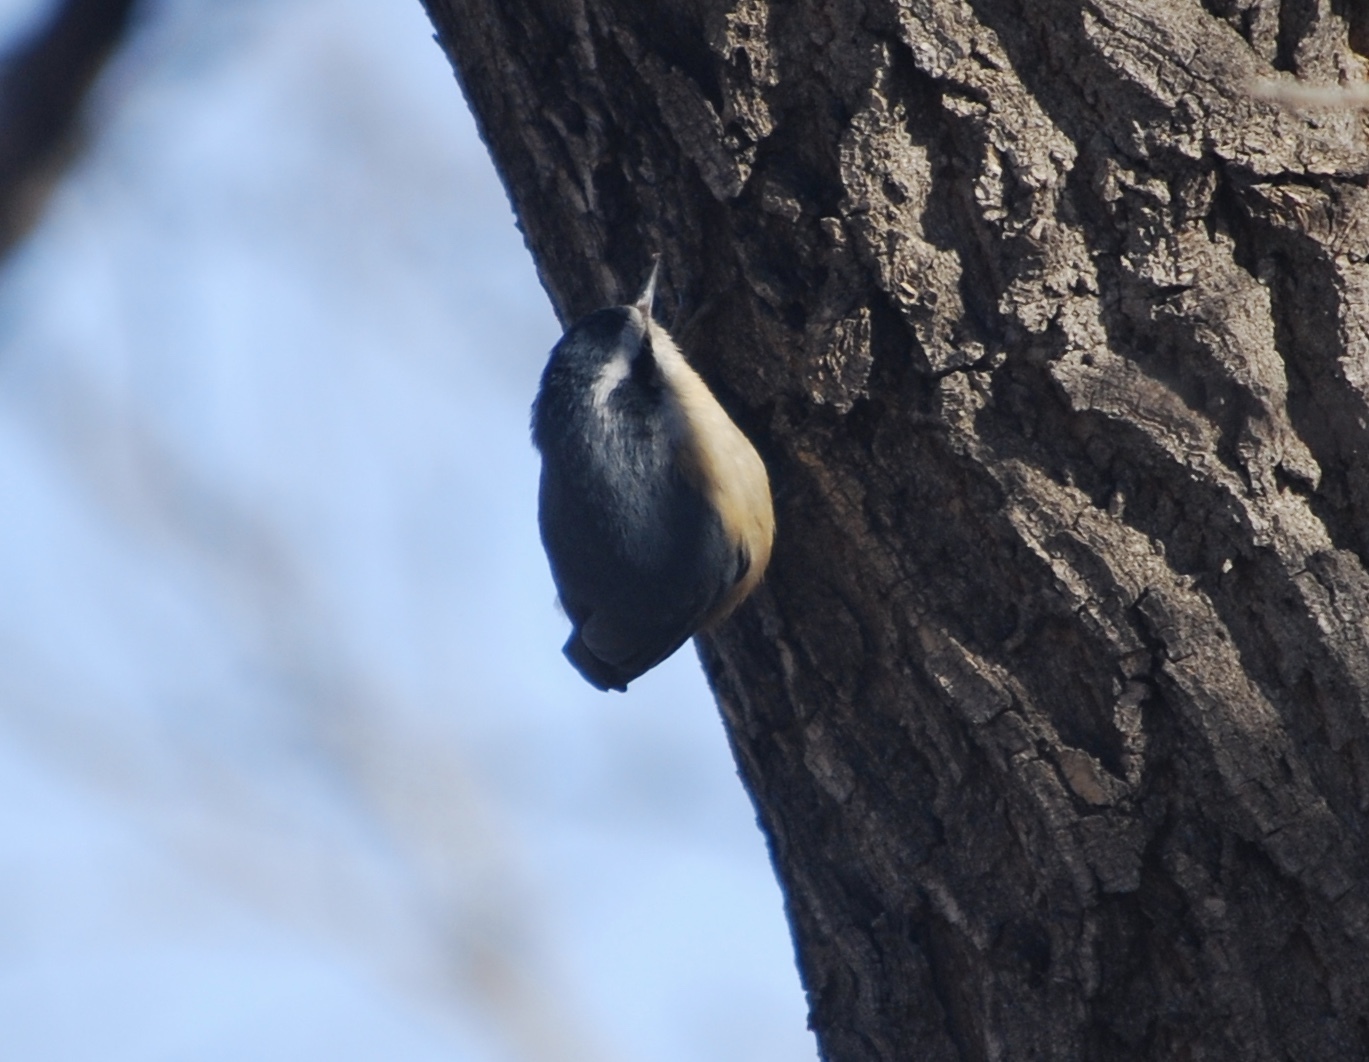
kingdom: Animalia
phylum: Chordata
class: Aves
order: Passeriformes
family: Sittidae
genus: Sitta
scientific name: Sitta canadensis
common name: Red-breasted nuthatch
